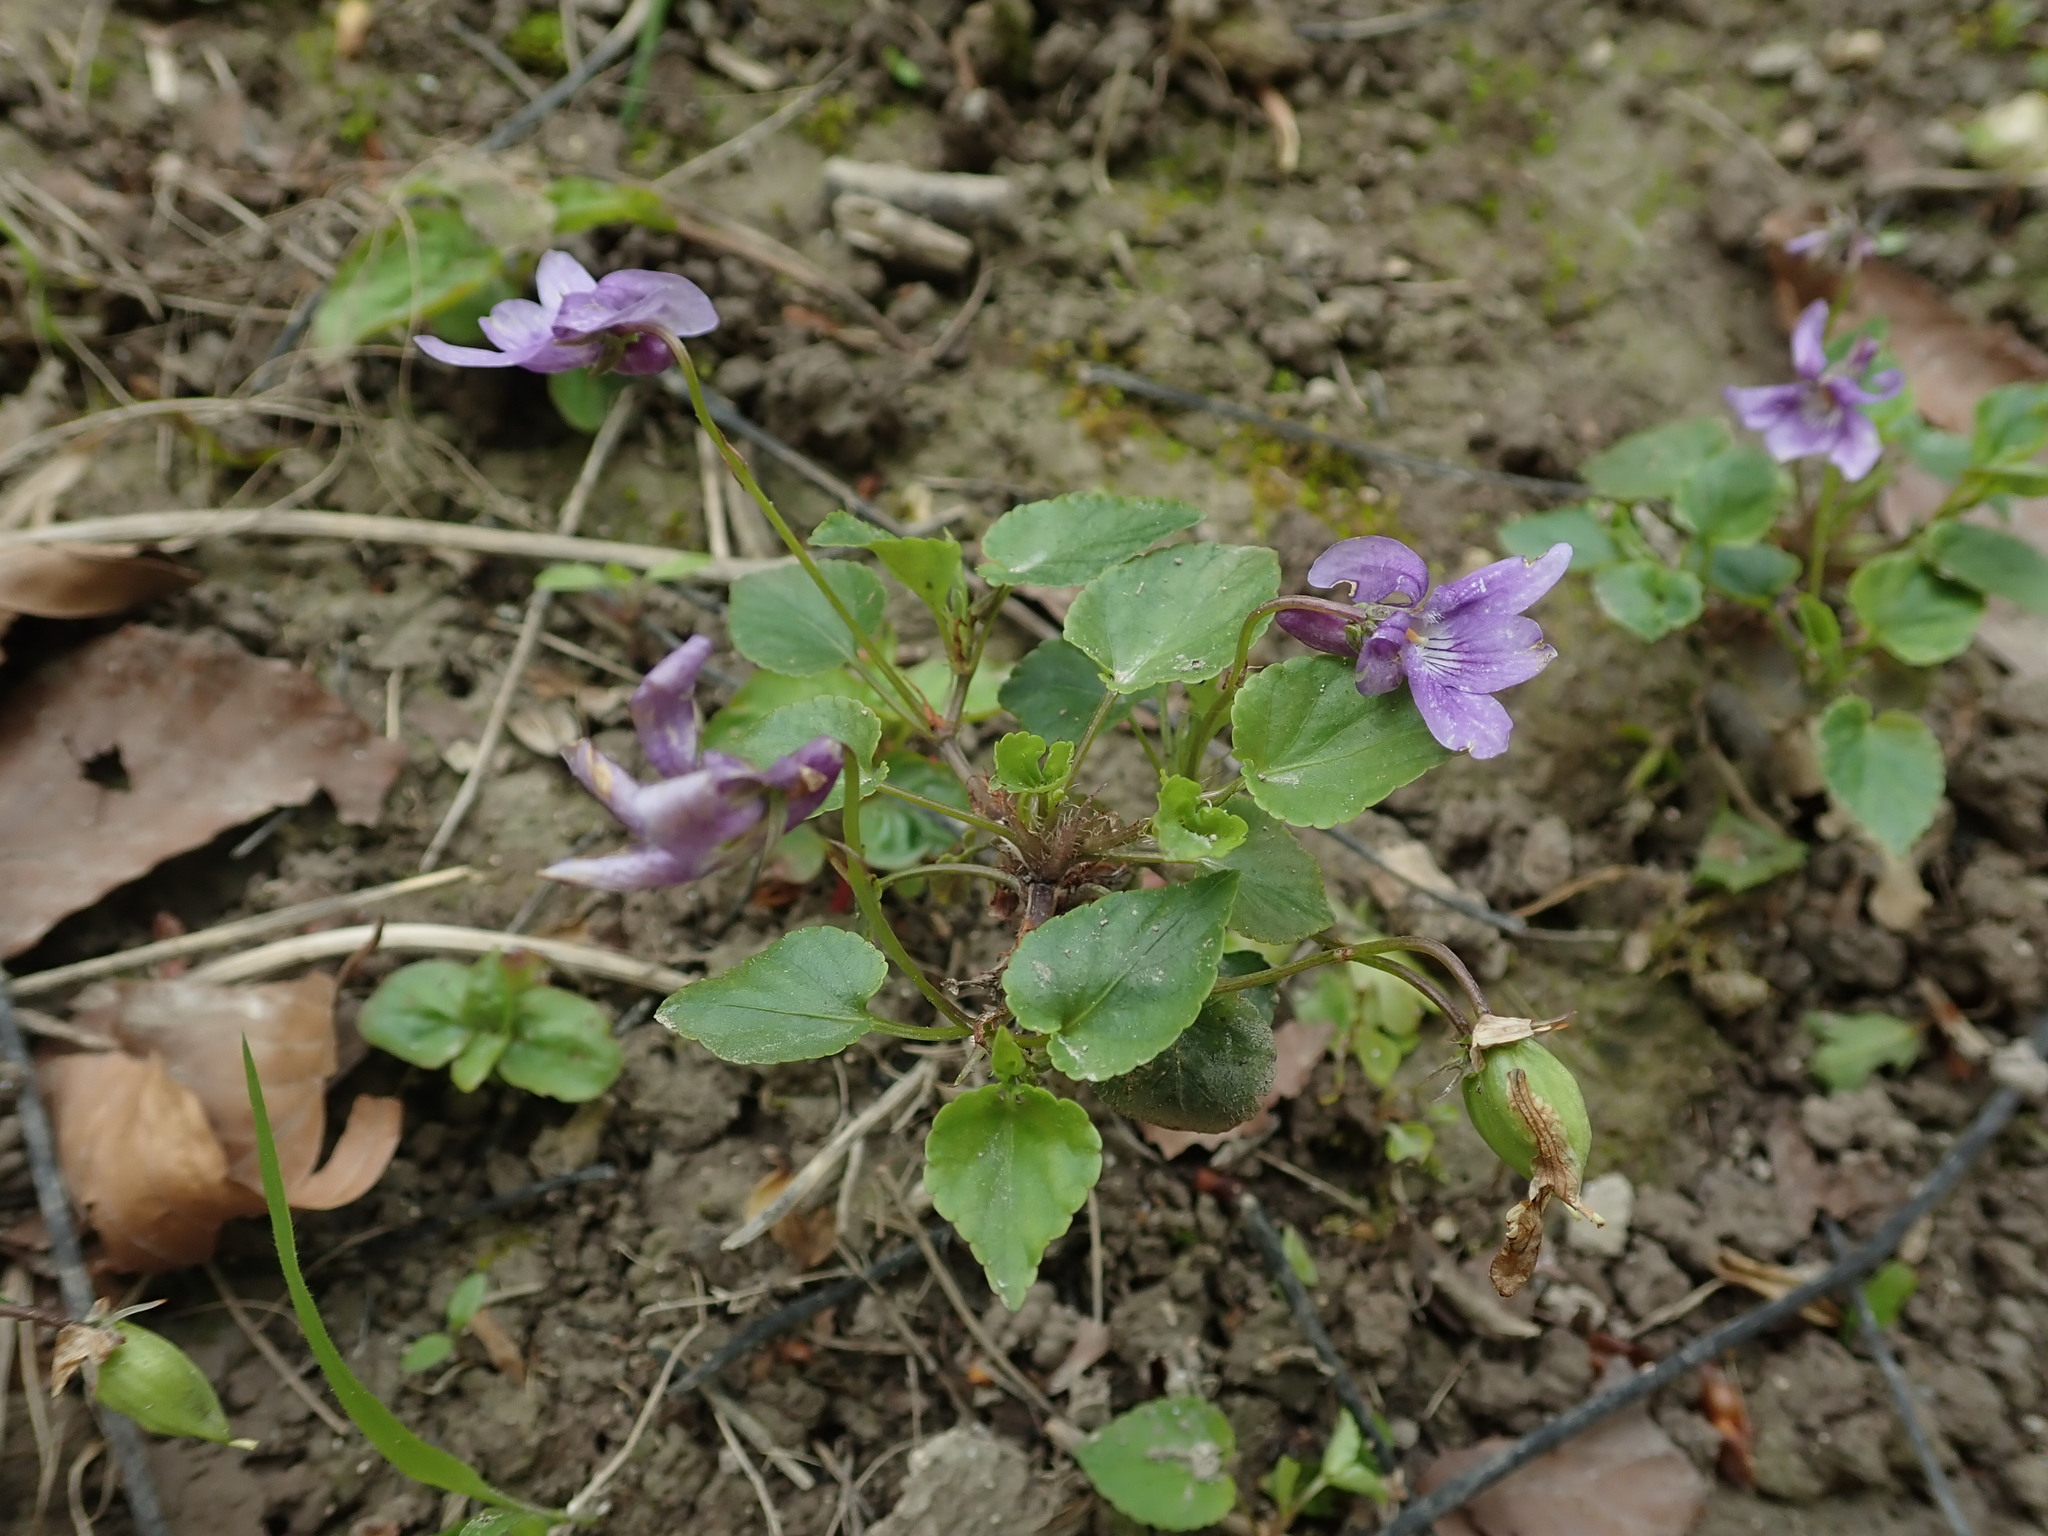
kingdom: Plantae
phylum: Tracheophyta
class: Magnoliopsida
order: Malpighiales
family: Violaceae
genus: Viola
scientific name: Viola reichenbachiana
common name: Early dog-violet
